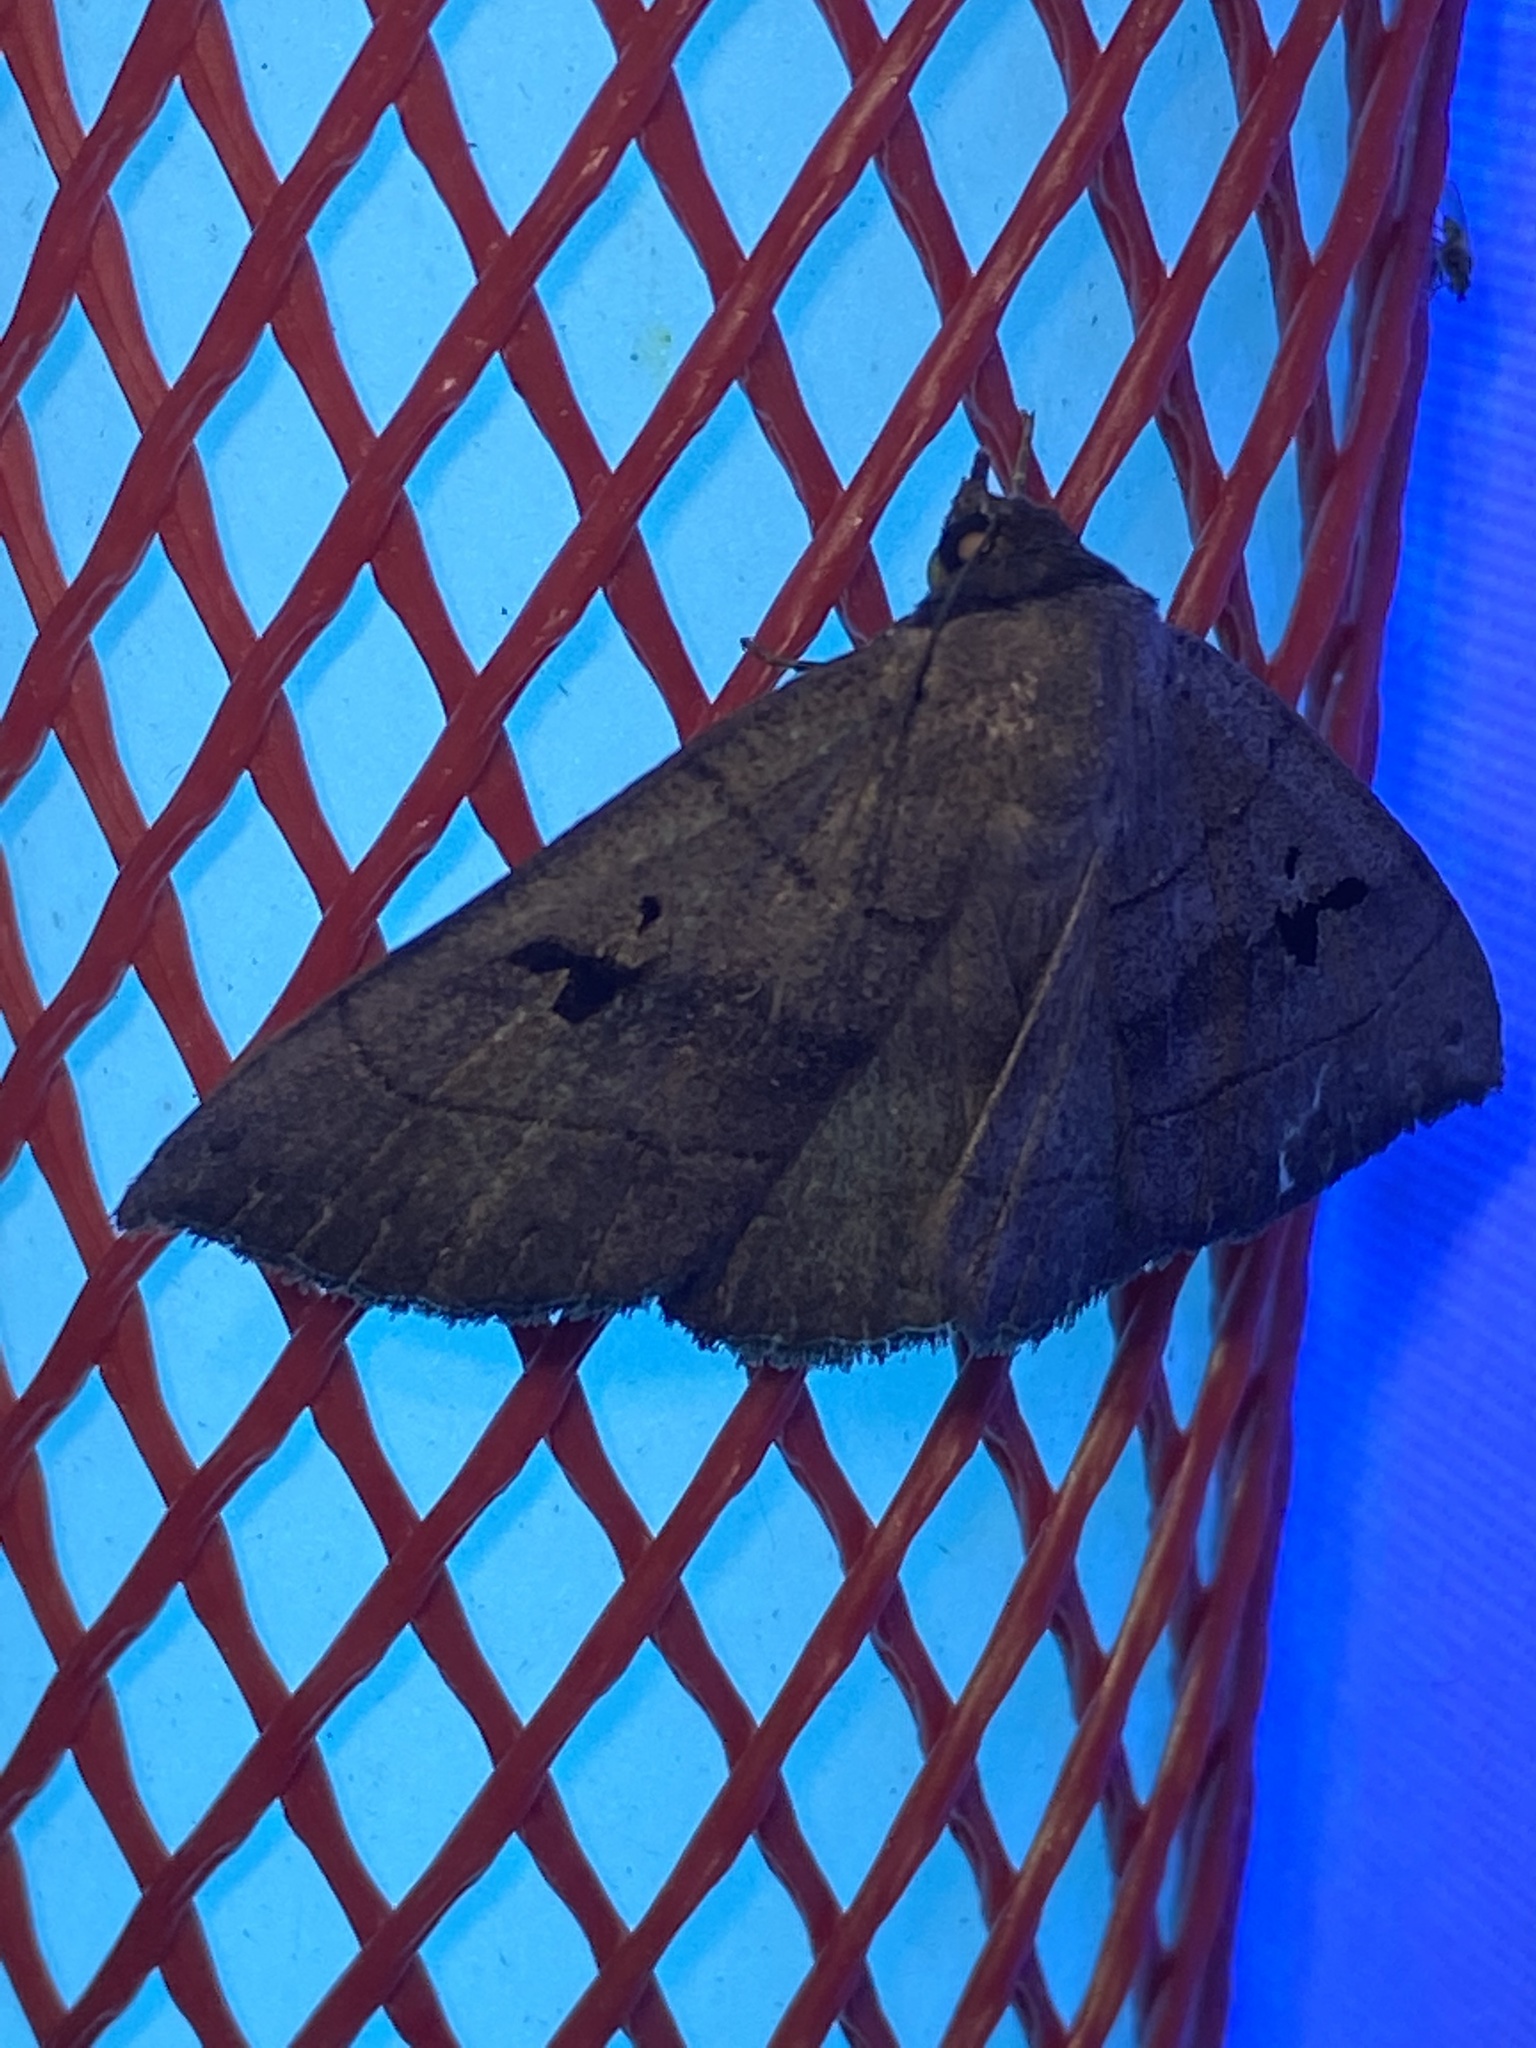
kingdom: Animalia
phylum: Arthropoda
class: Insecta
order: Lepidoptera
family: Erebidae
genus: Panopoda
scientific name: Panopoda carneicosta
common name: Brown panopoda moth
